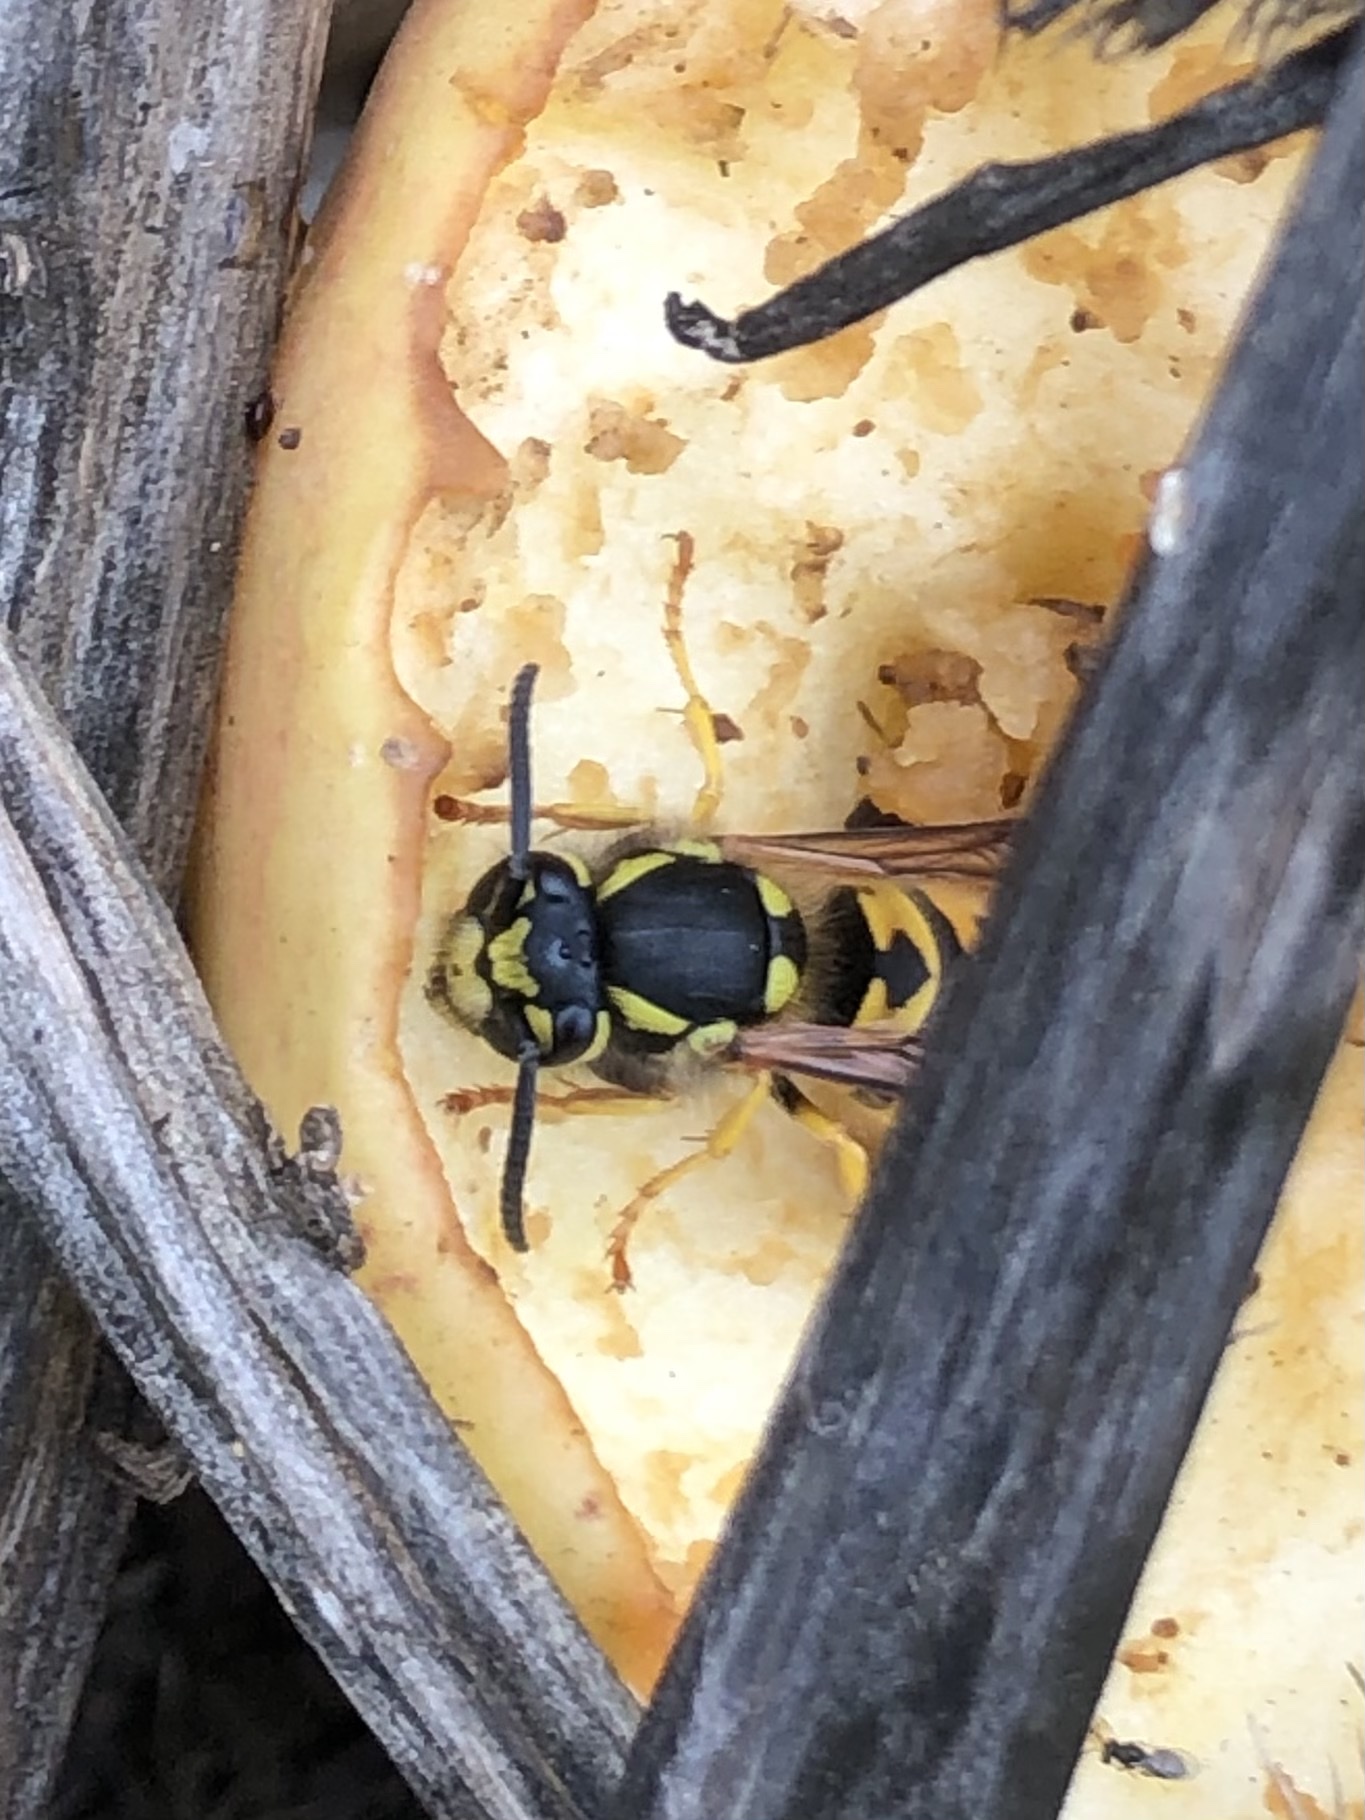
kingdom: Animalia
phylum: Arthropoda
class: Insecta
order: Hymenoptera
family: Vespidae
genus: Vespula
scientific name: Vespula germanica
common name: German wasp
